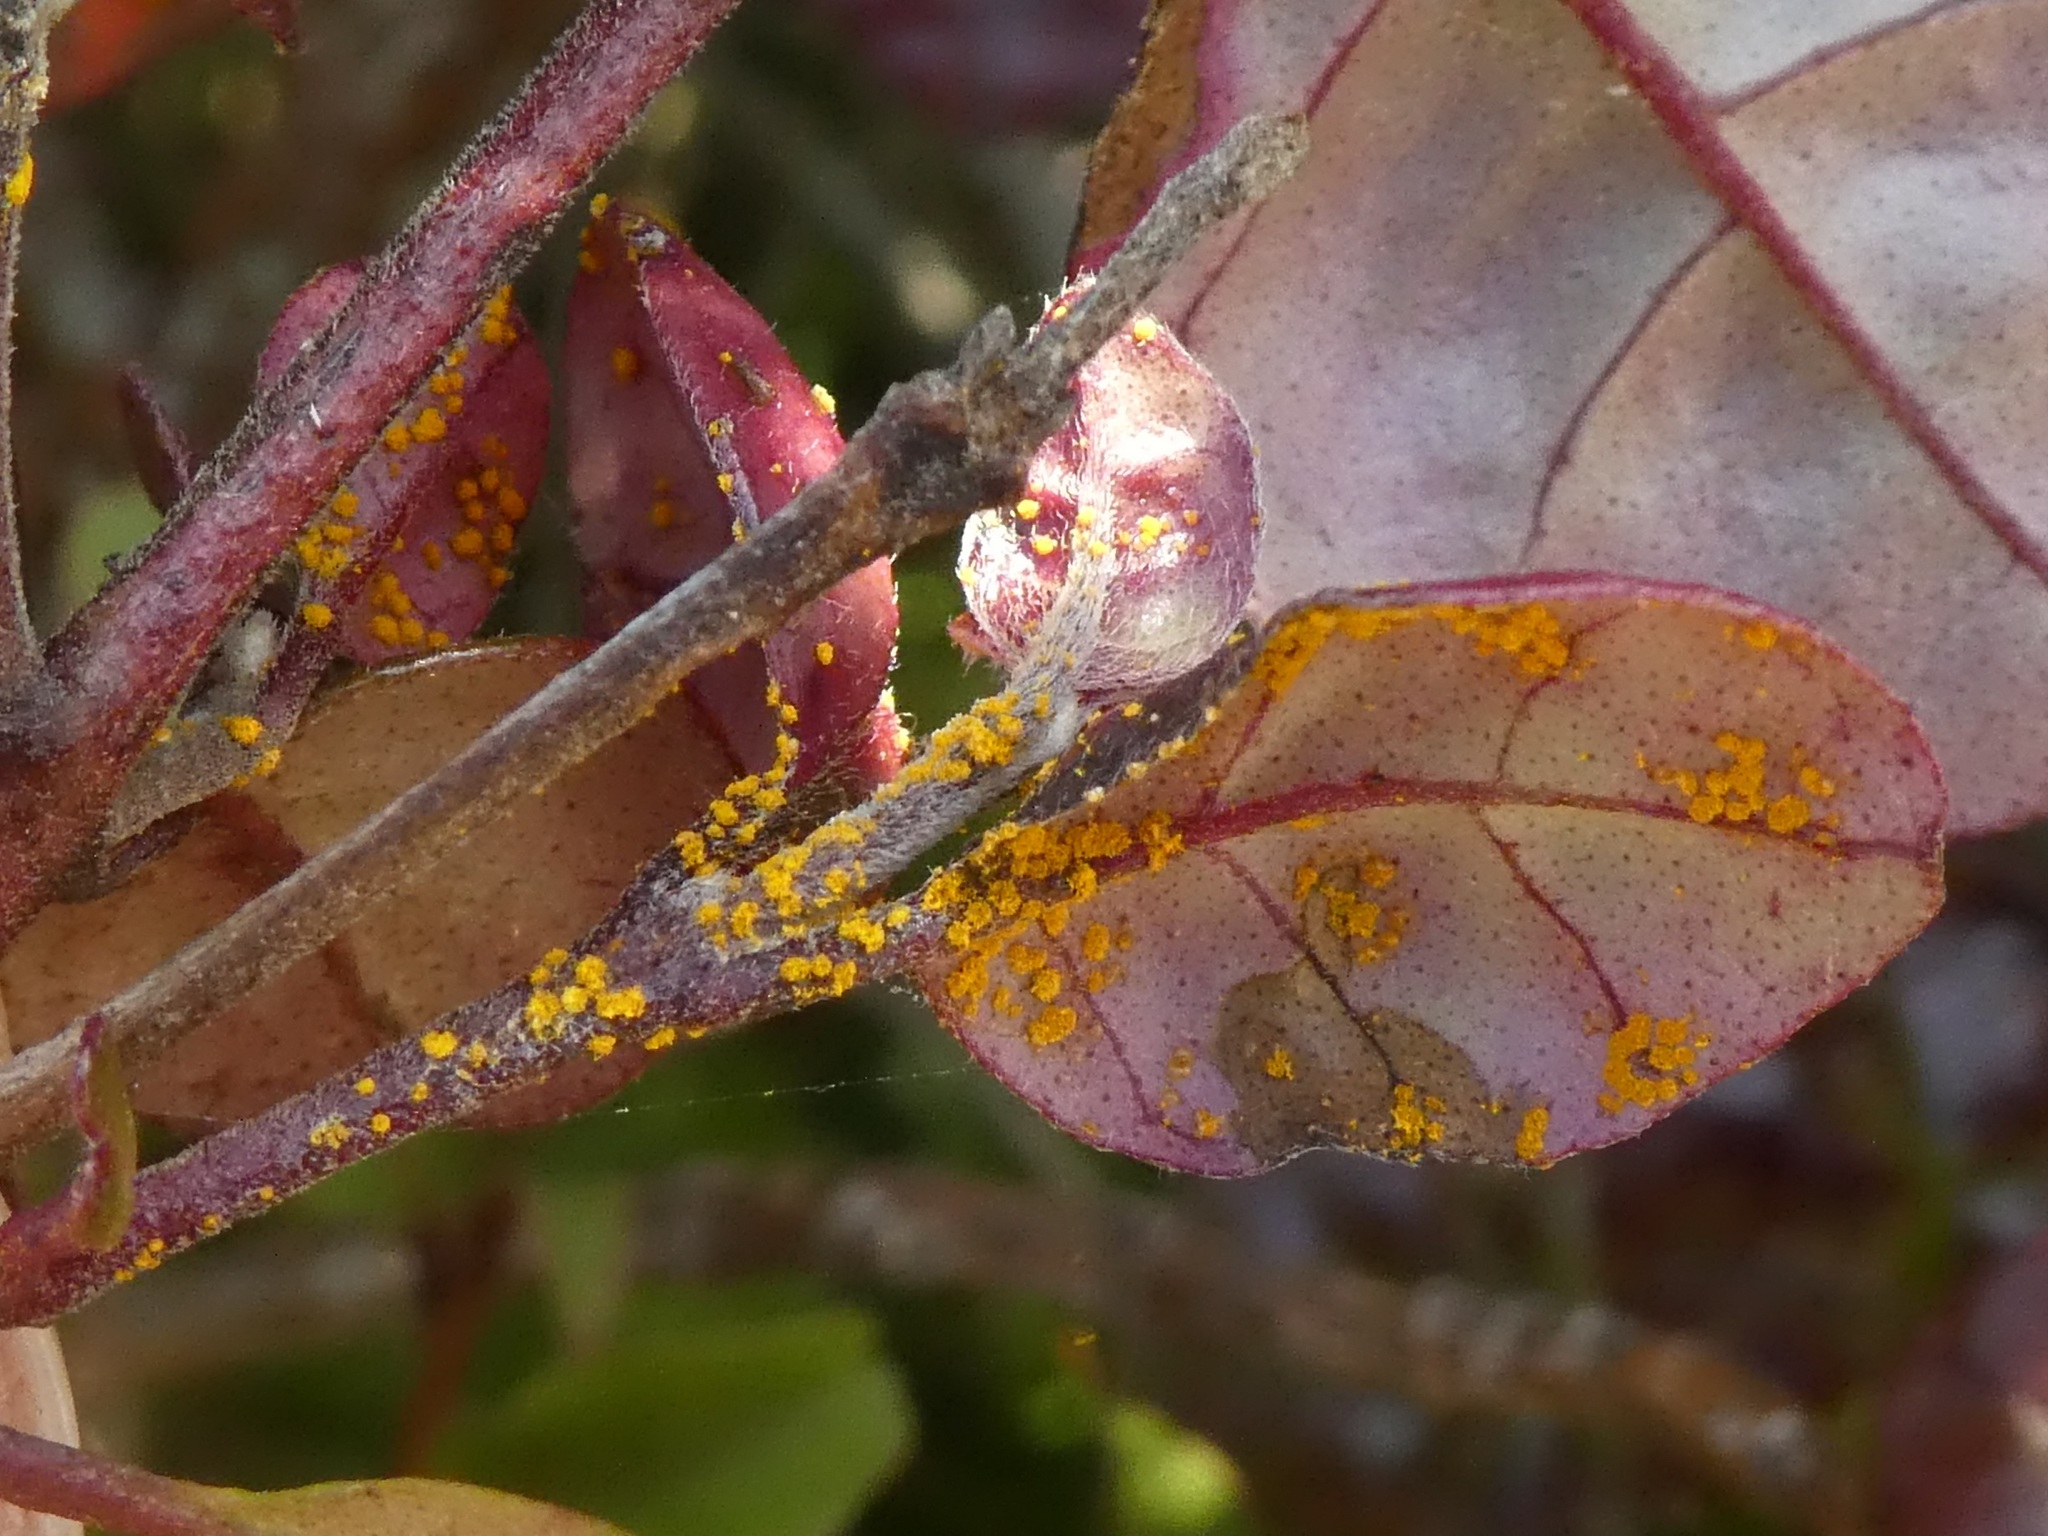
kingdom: Fungi
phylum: Basidiomycota
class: Pucciniomycetes
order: Pucciniales
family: Sphaerophragmiaceae
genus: Austropuccinia
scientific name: Austropuccinia psidii
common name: Myrtle rust
